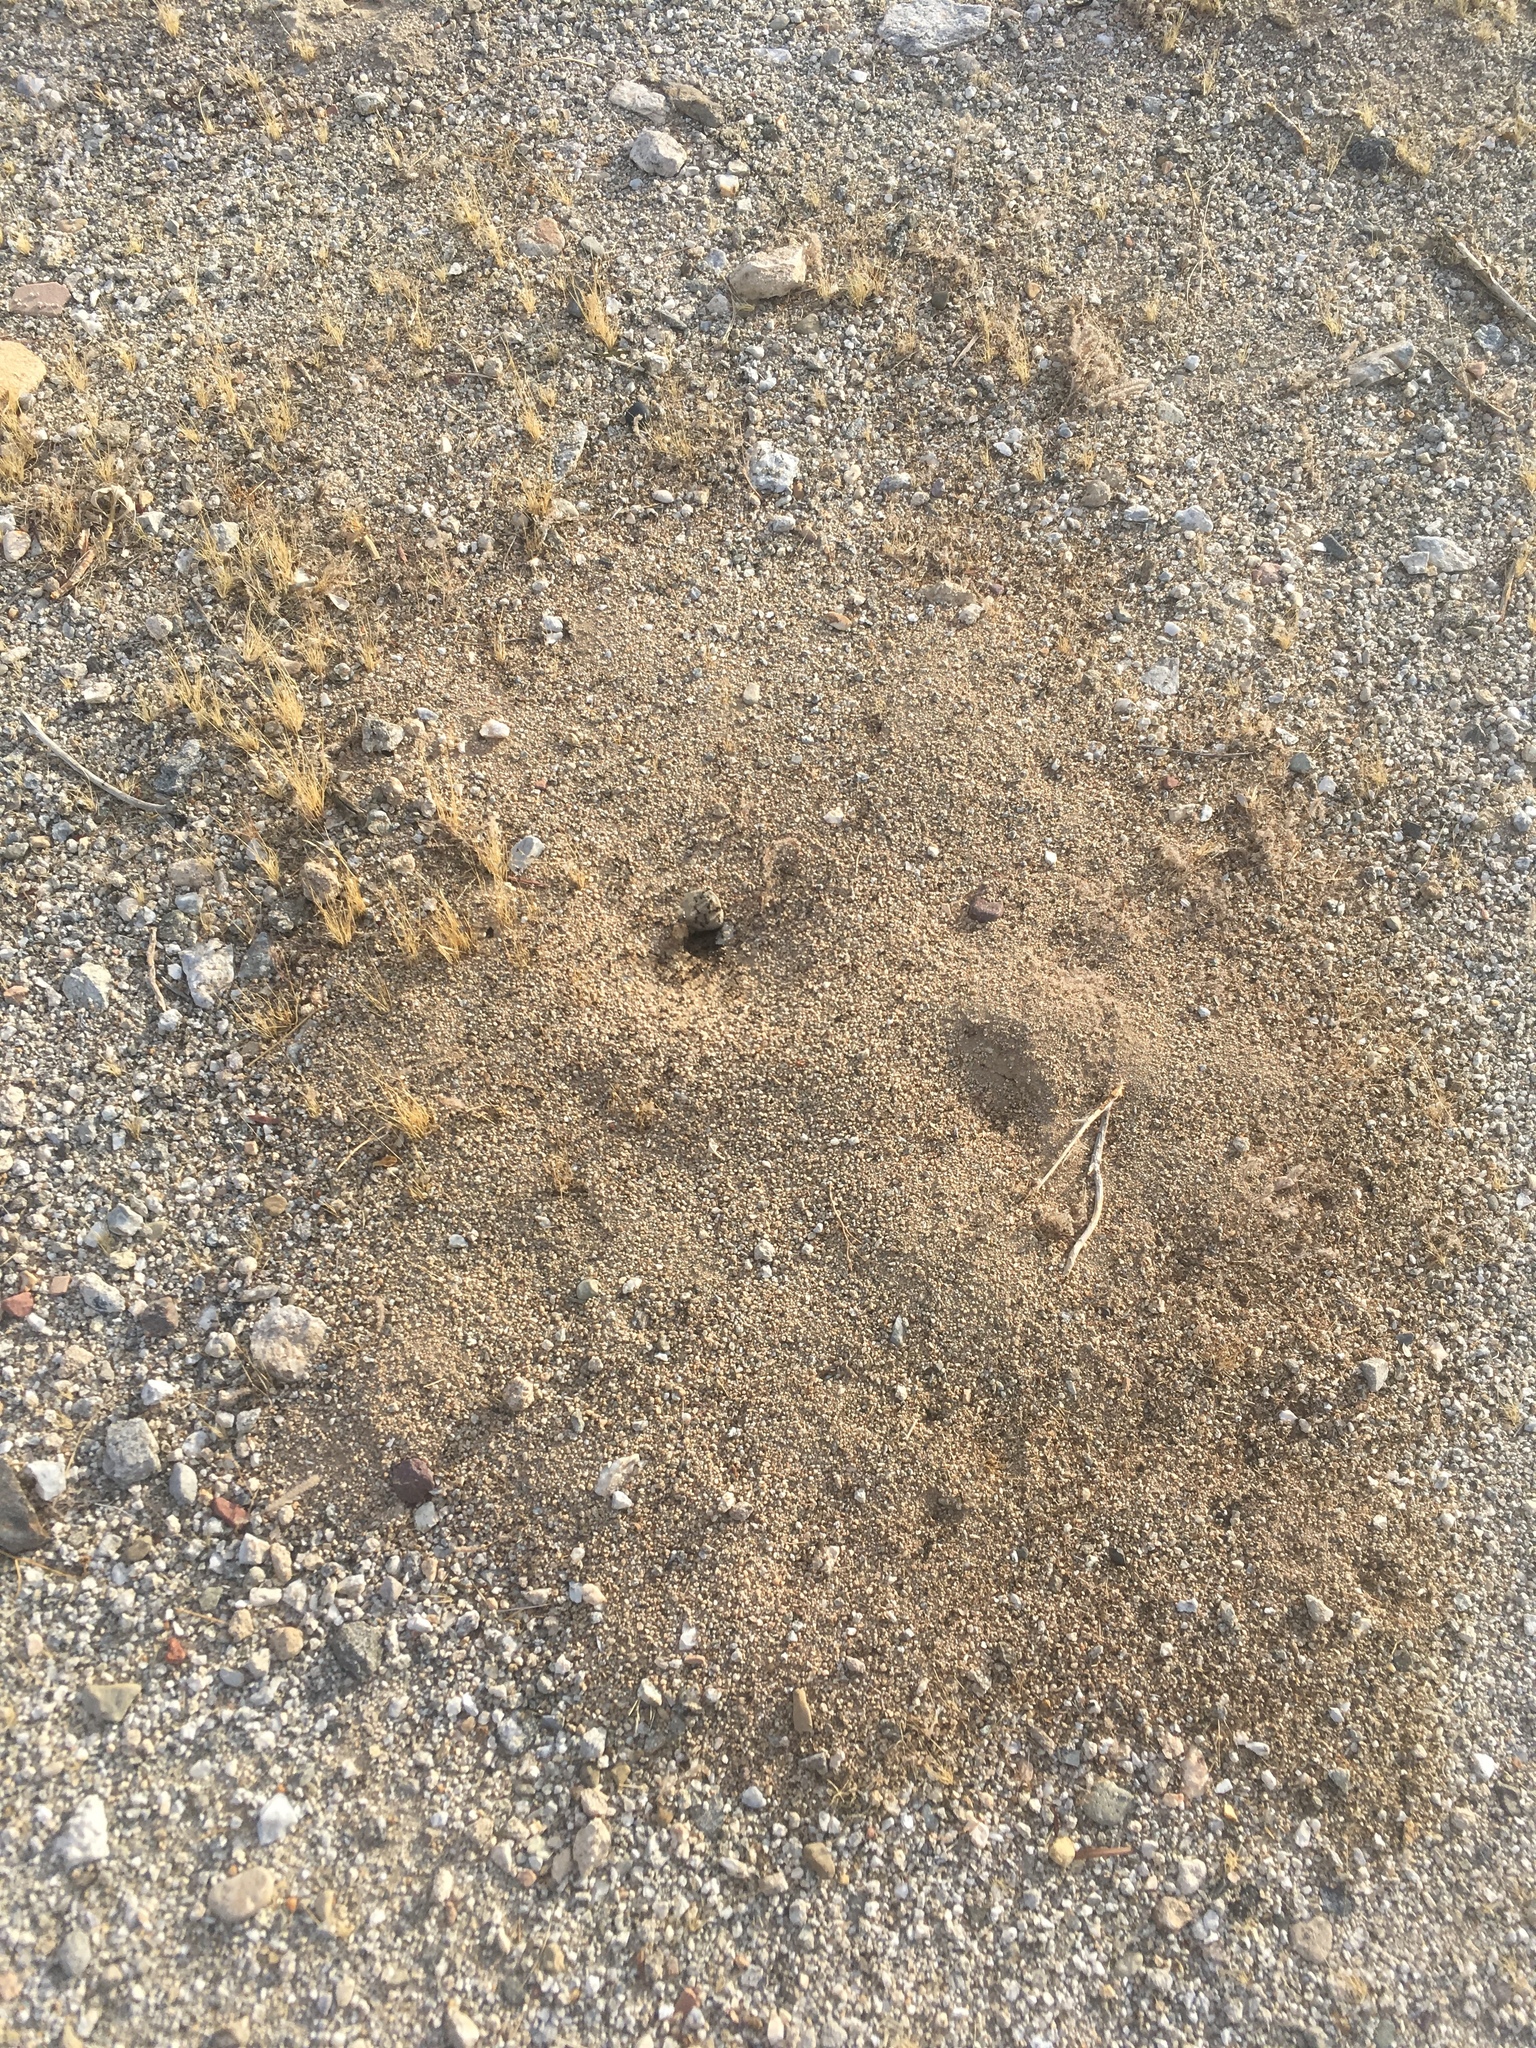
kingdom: Animalia
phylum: Arthropoda
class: Insecta
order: Hymenoptera
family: Formicidae
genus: Messor
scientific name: Messor pergandei
